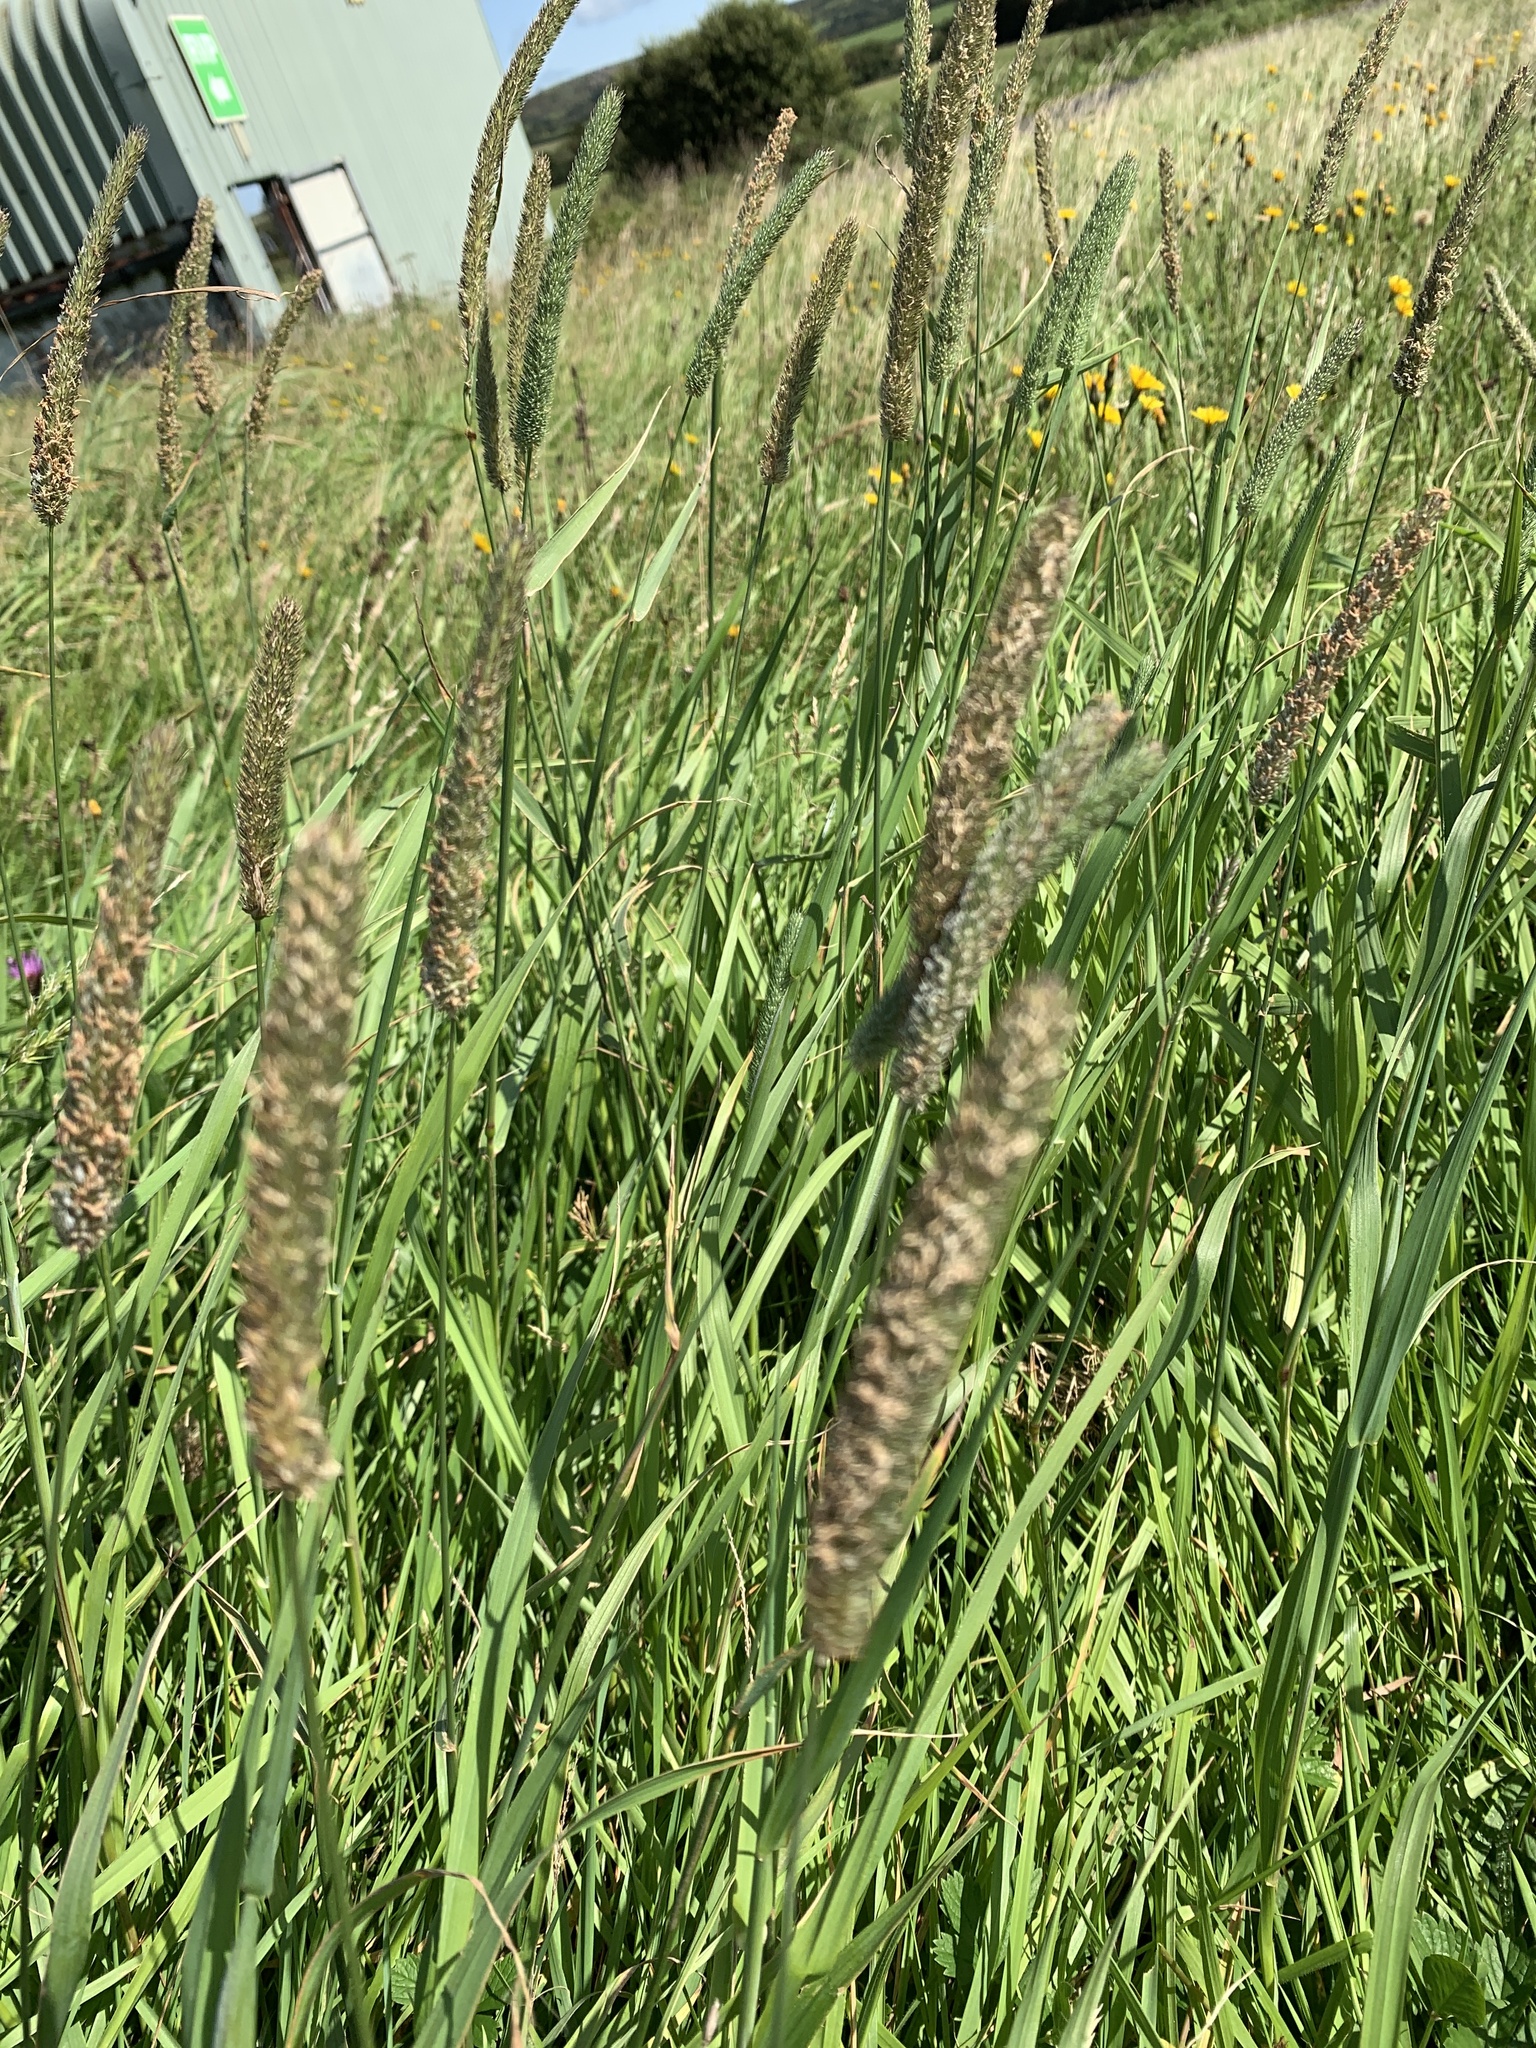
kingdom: Plantae
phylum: Tracheophyta
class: Liliopsida
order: Poales
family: Poaceae
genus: Phleum
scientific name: Phleum pratense
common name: Timothy grass
